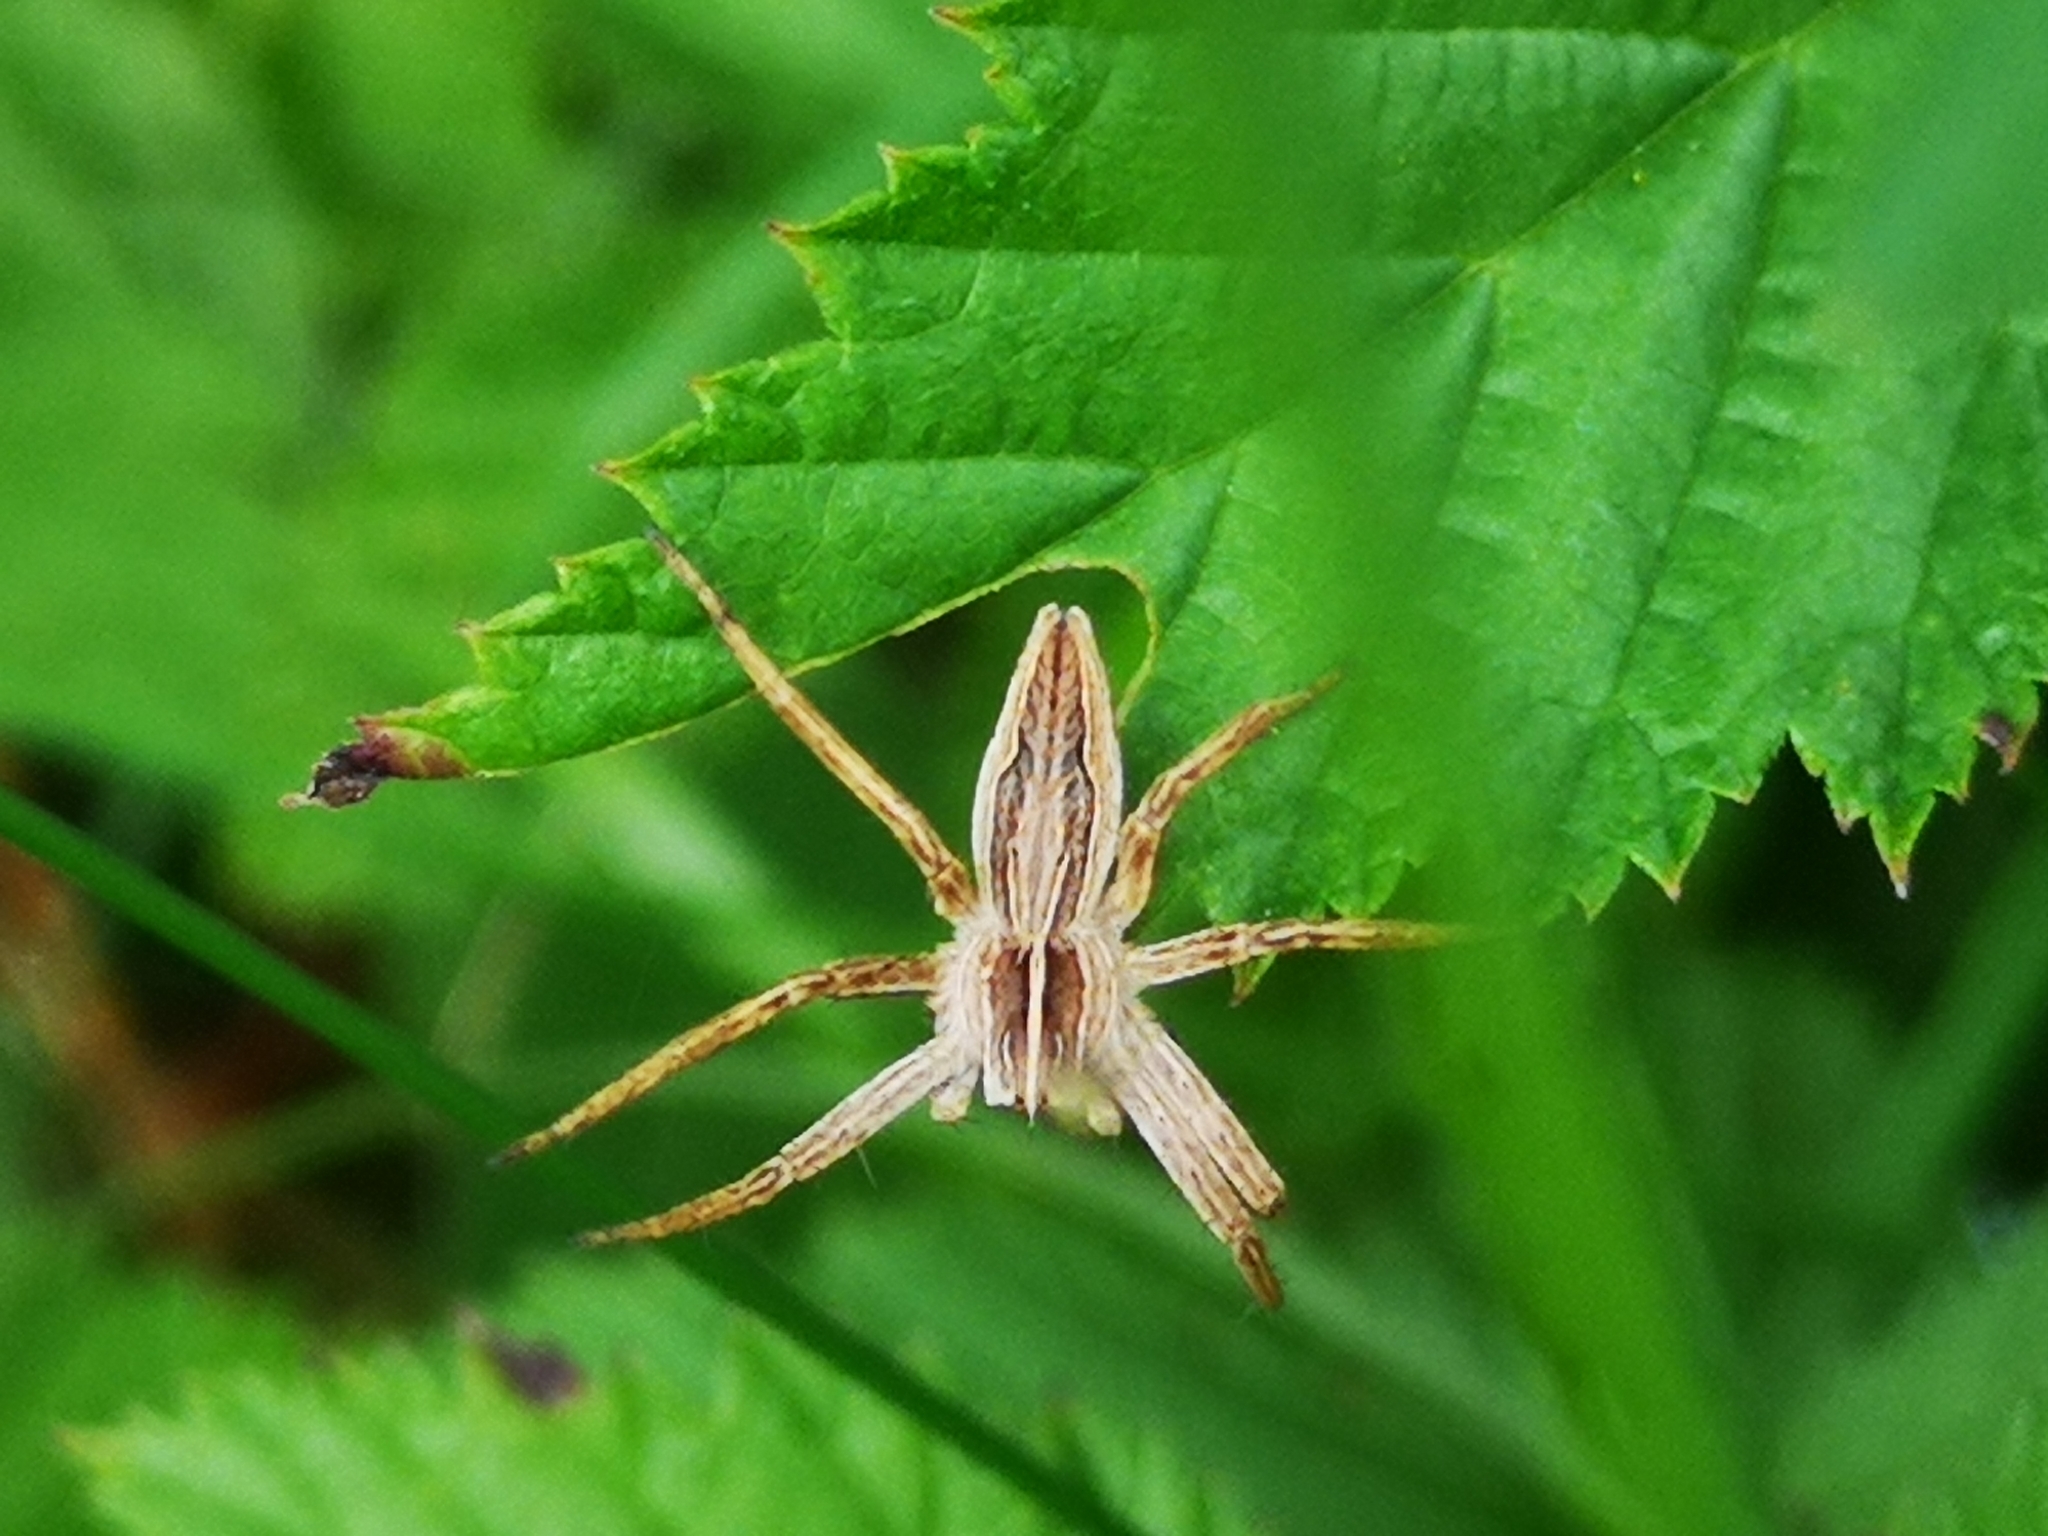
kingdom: Animalia
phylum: Arthropoda
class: Arachnida
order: Araneae
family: Pisauridae
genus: Pisaura
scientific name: Pisaura mirabilis
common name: Tent spider
